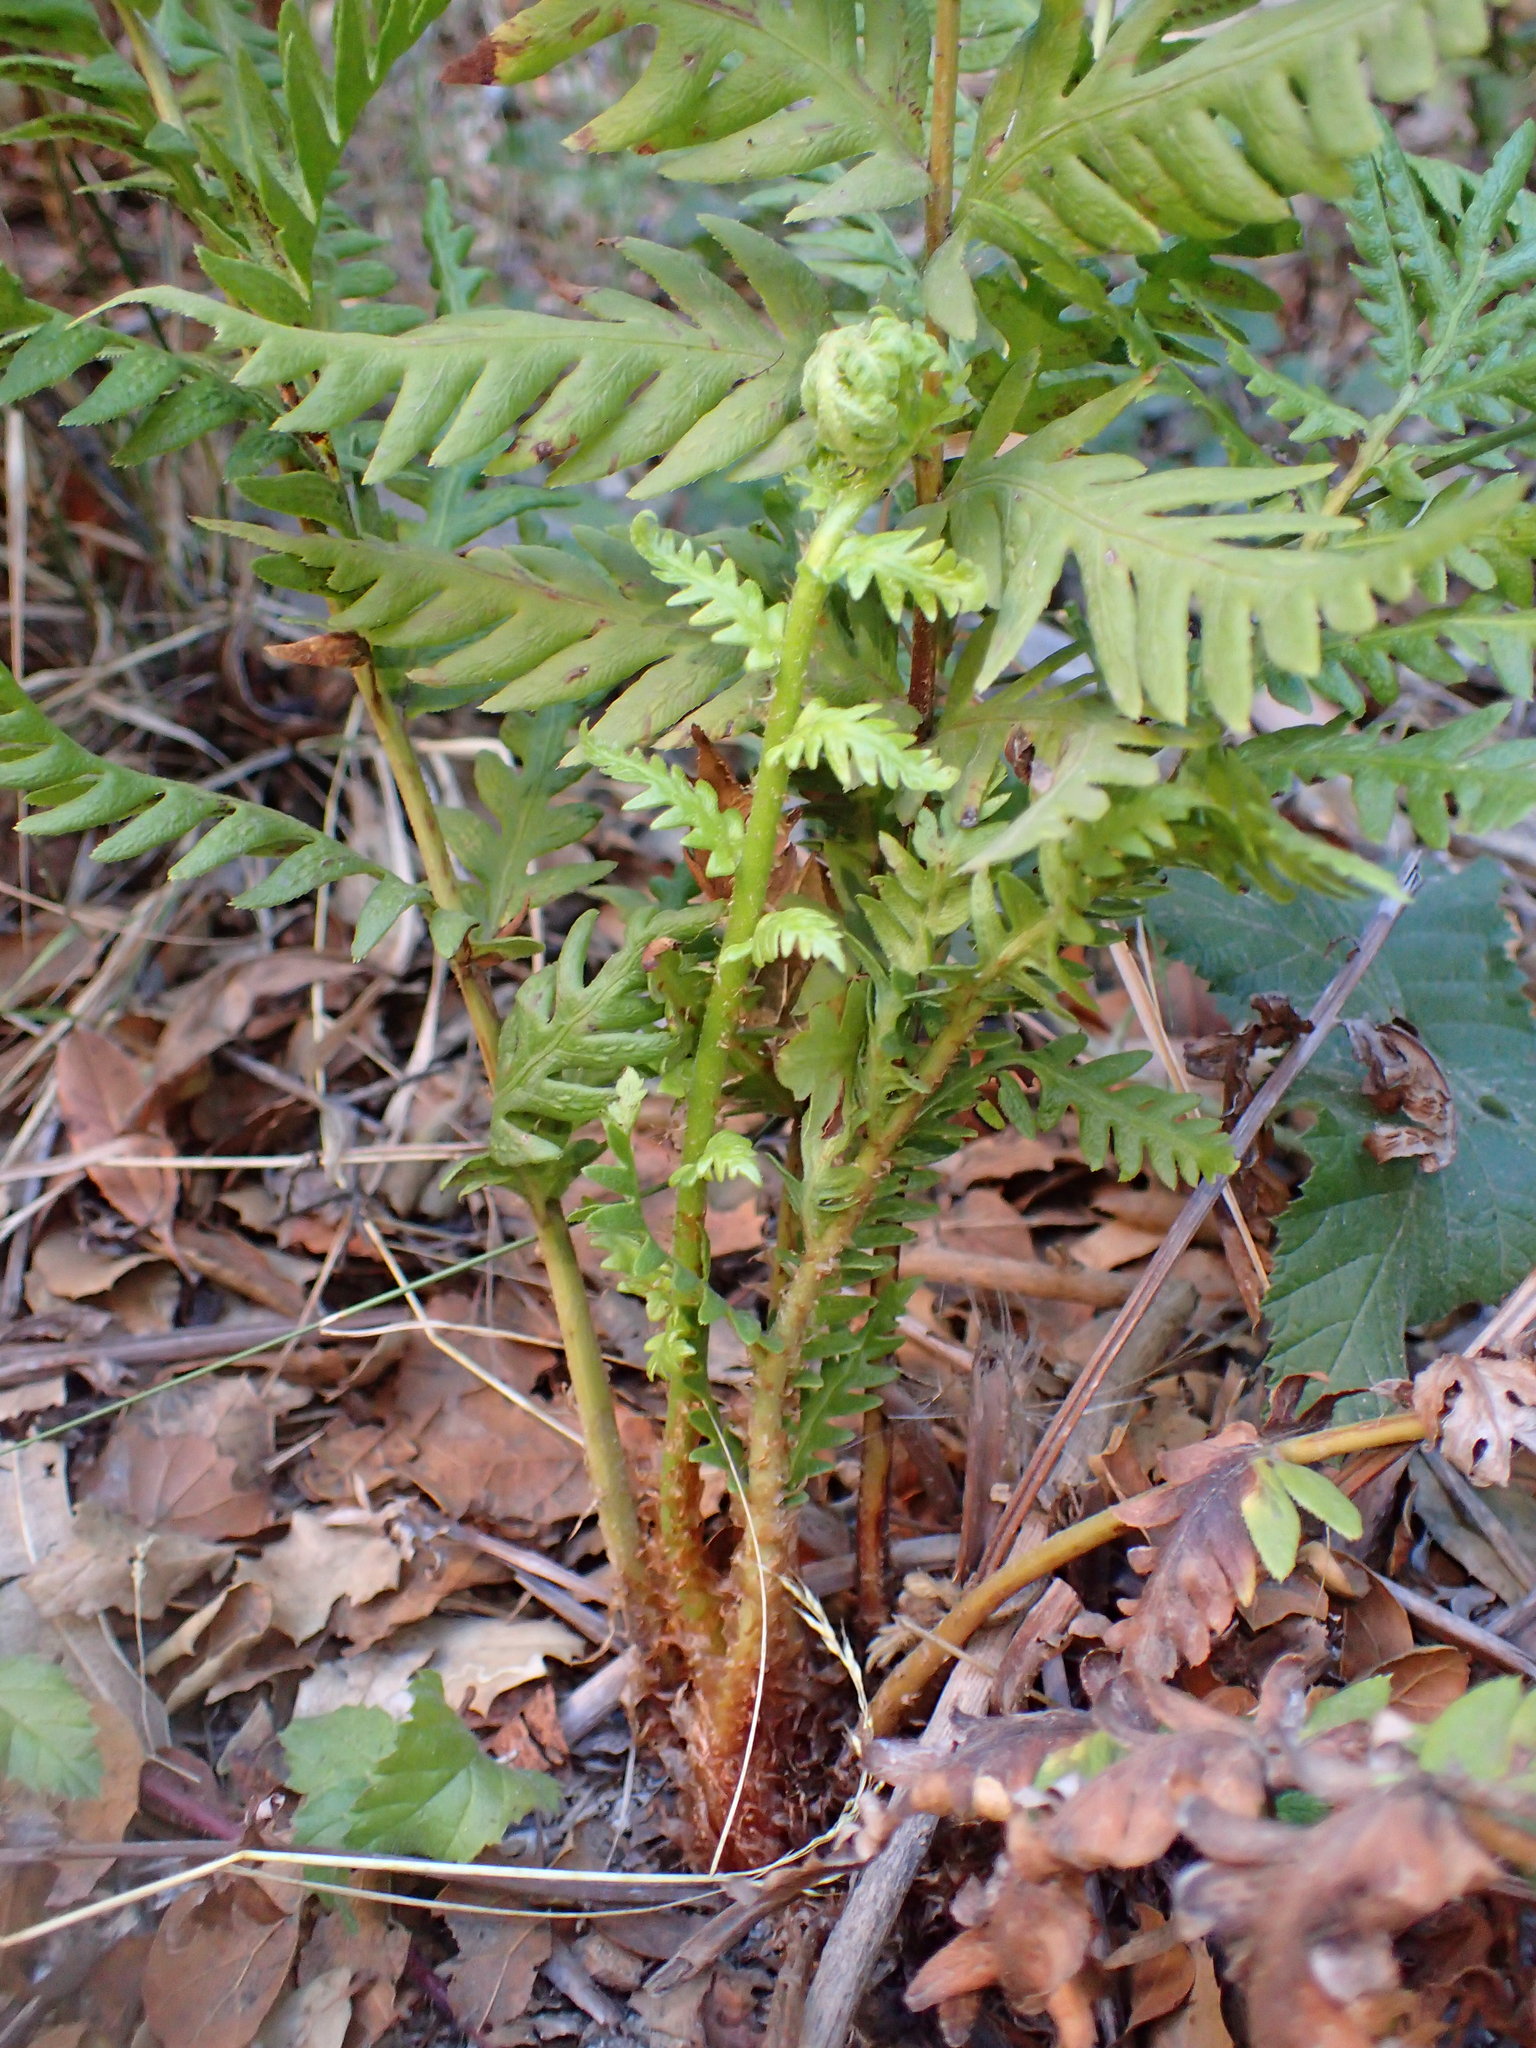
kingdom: Plantae
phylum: Tracheophyta
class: Polypodiopsida
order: Polypodiales
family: Blechnaceae
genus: Woodwardia
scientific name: Woodwardia fimbriata
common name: Giant chain fern
